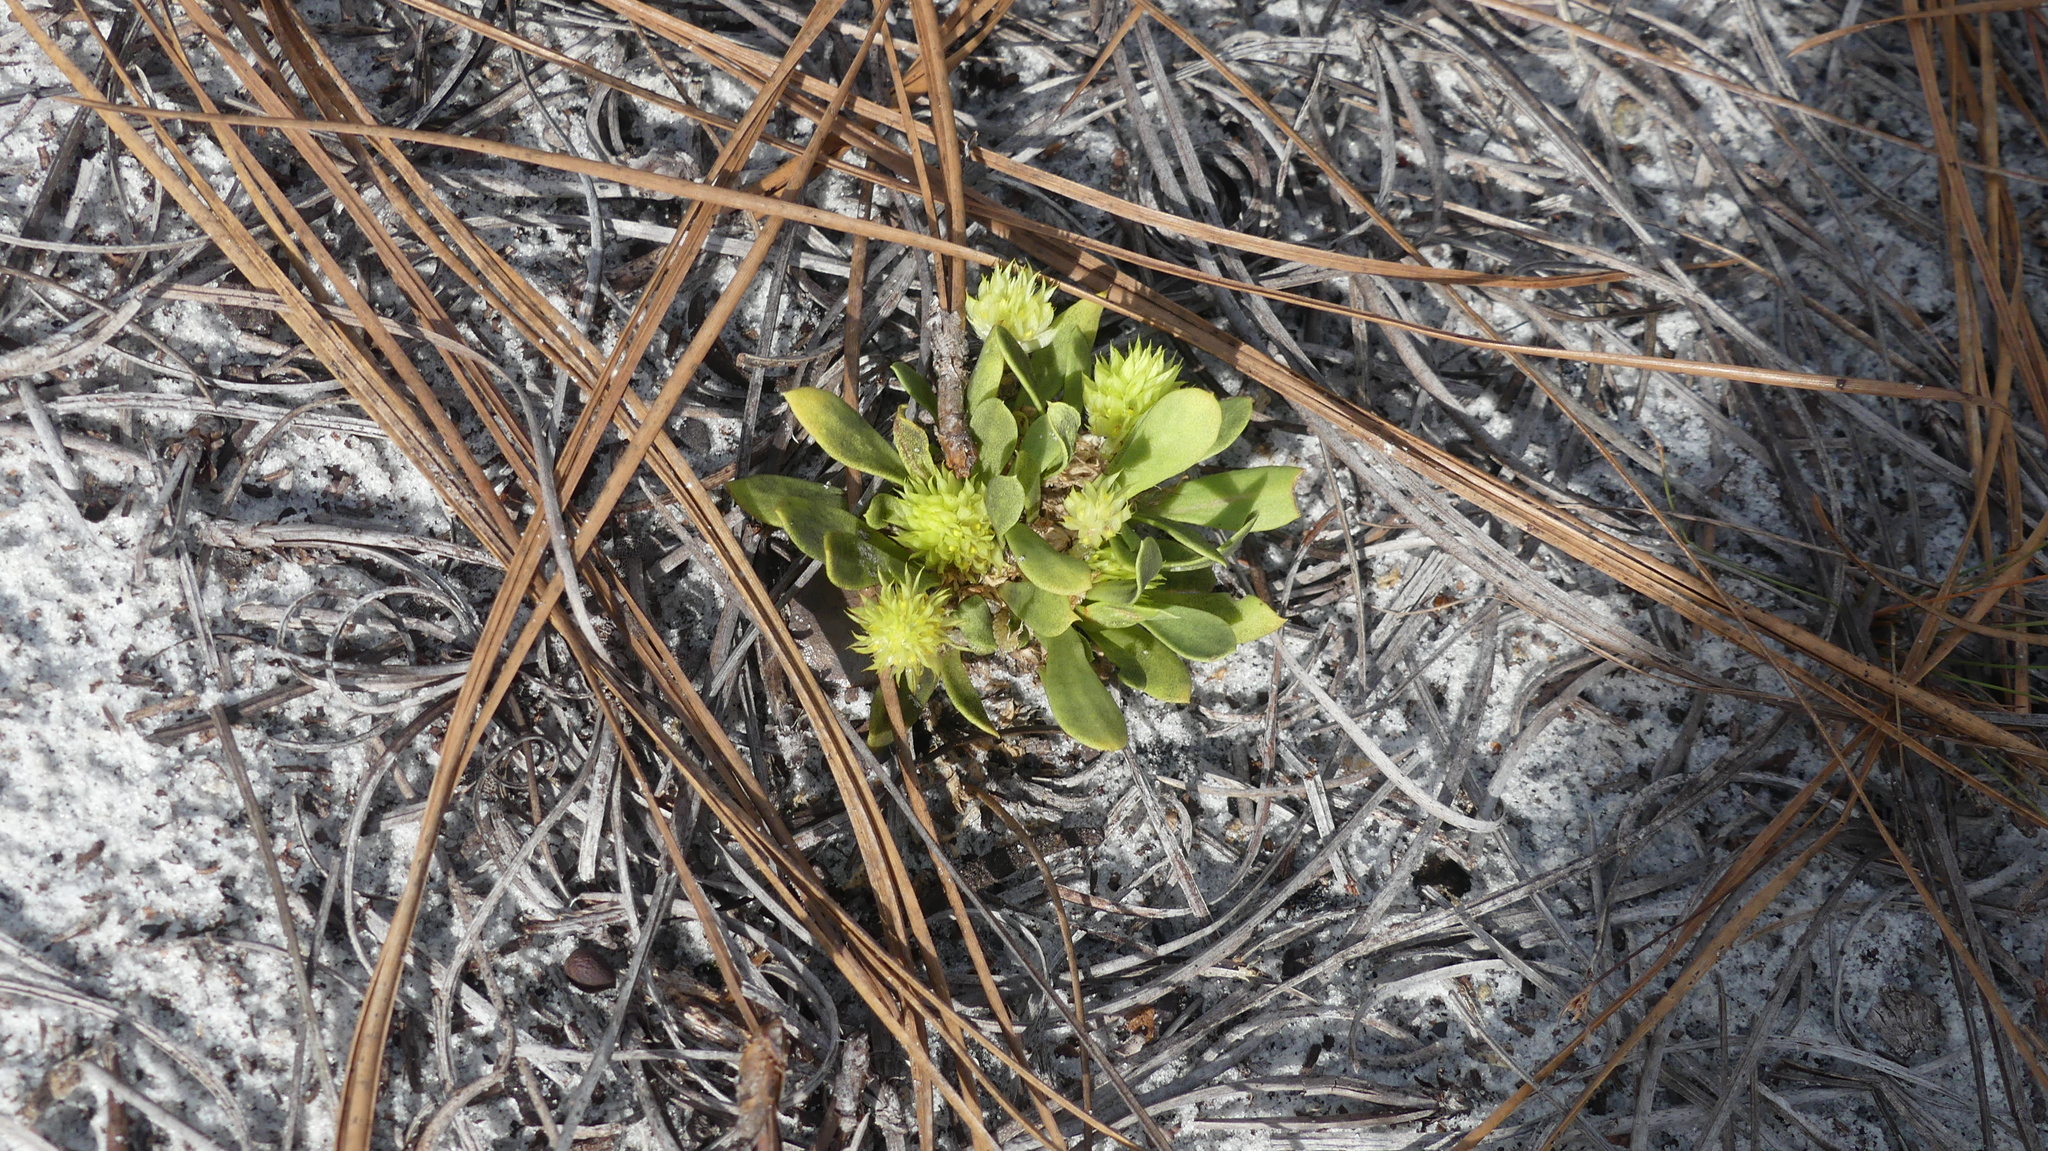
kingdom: Plantae
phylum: Tracheophyta
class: Magnoliopsida
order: Fabales
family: Polygalaceae
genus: Polygala
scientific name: Polygala nana
